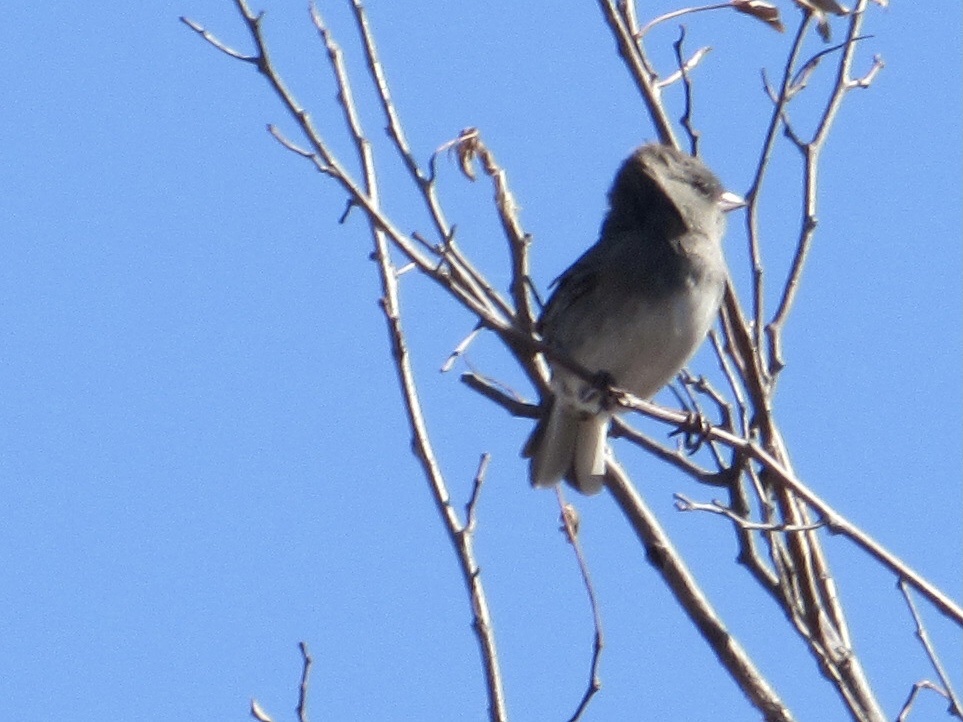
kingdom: Animalia
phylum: Chordata
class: Aves
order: Passeriformes
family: Passerellidae
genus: Junco
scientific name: Junco hyemalis
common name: Dark-eyed junco
